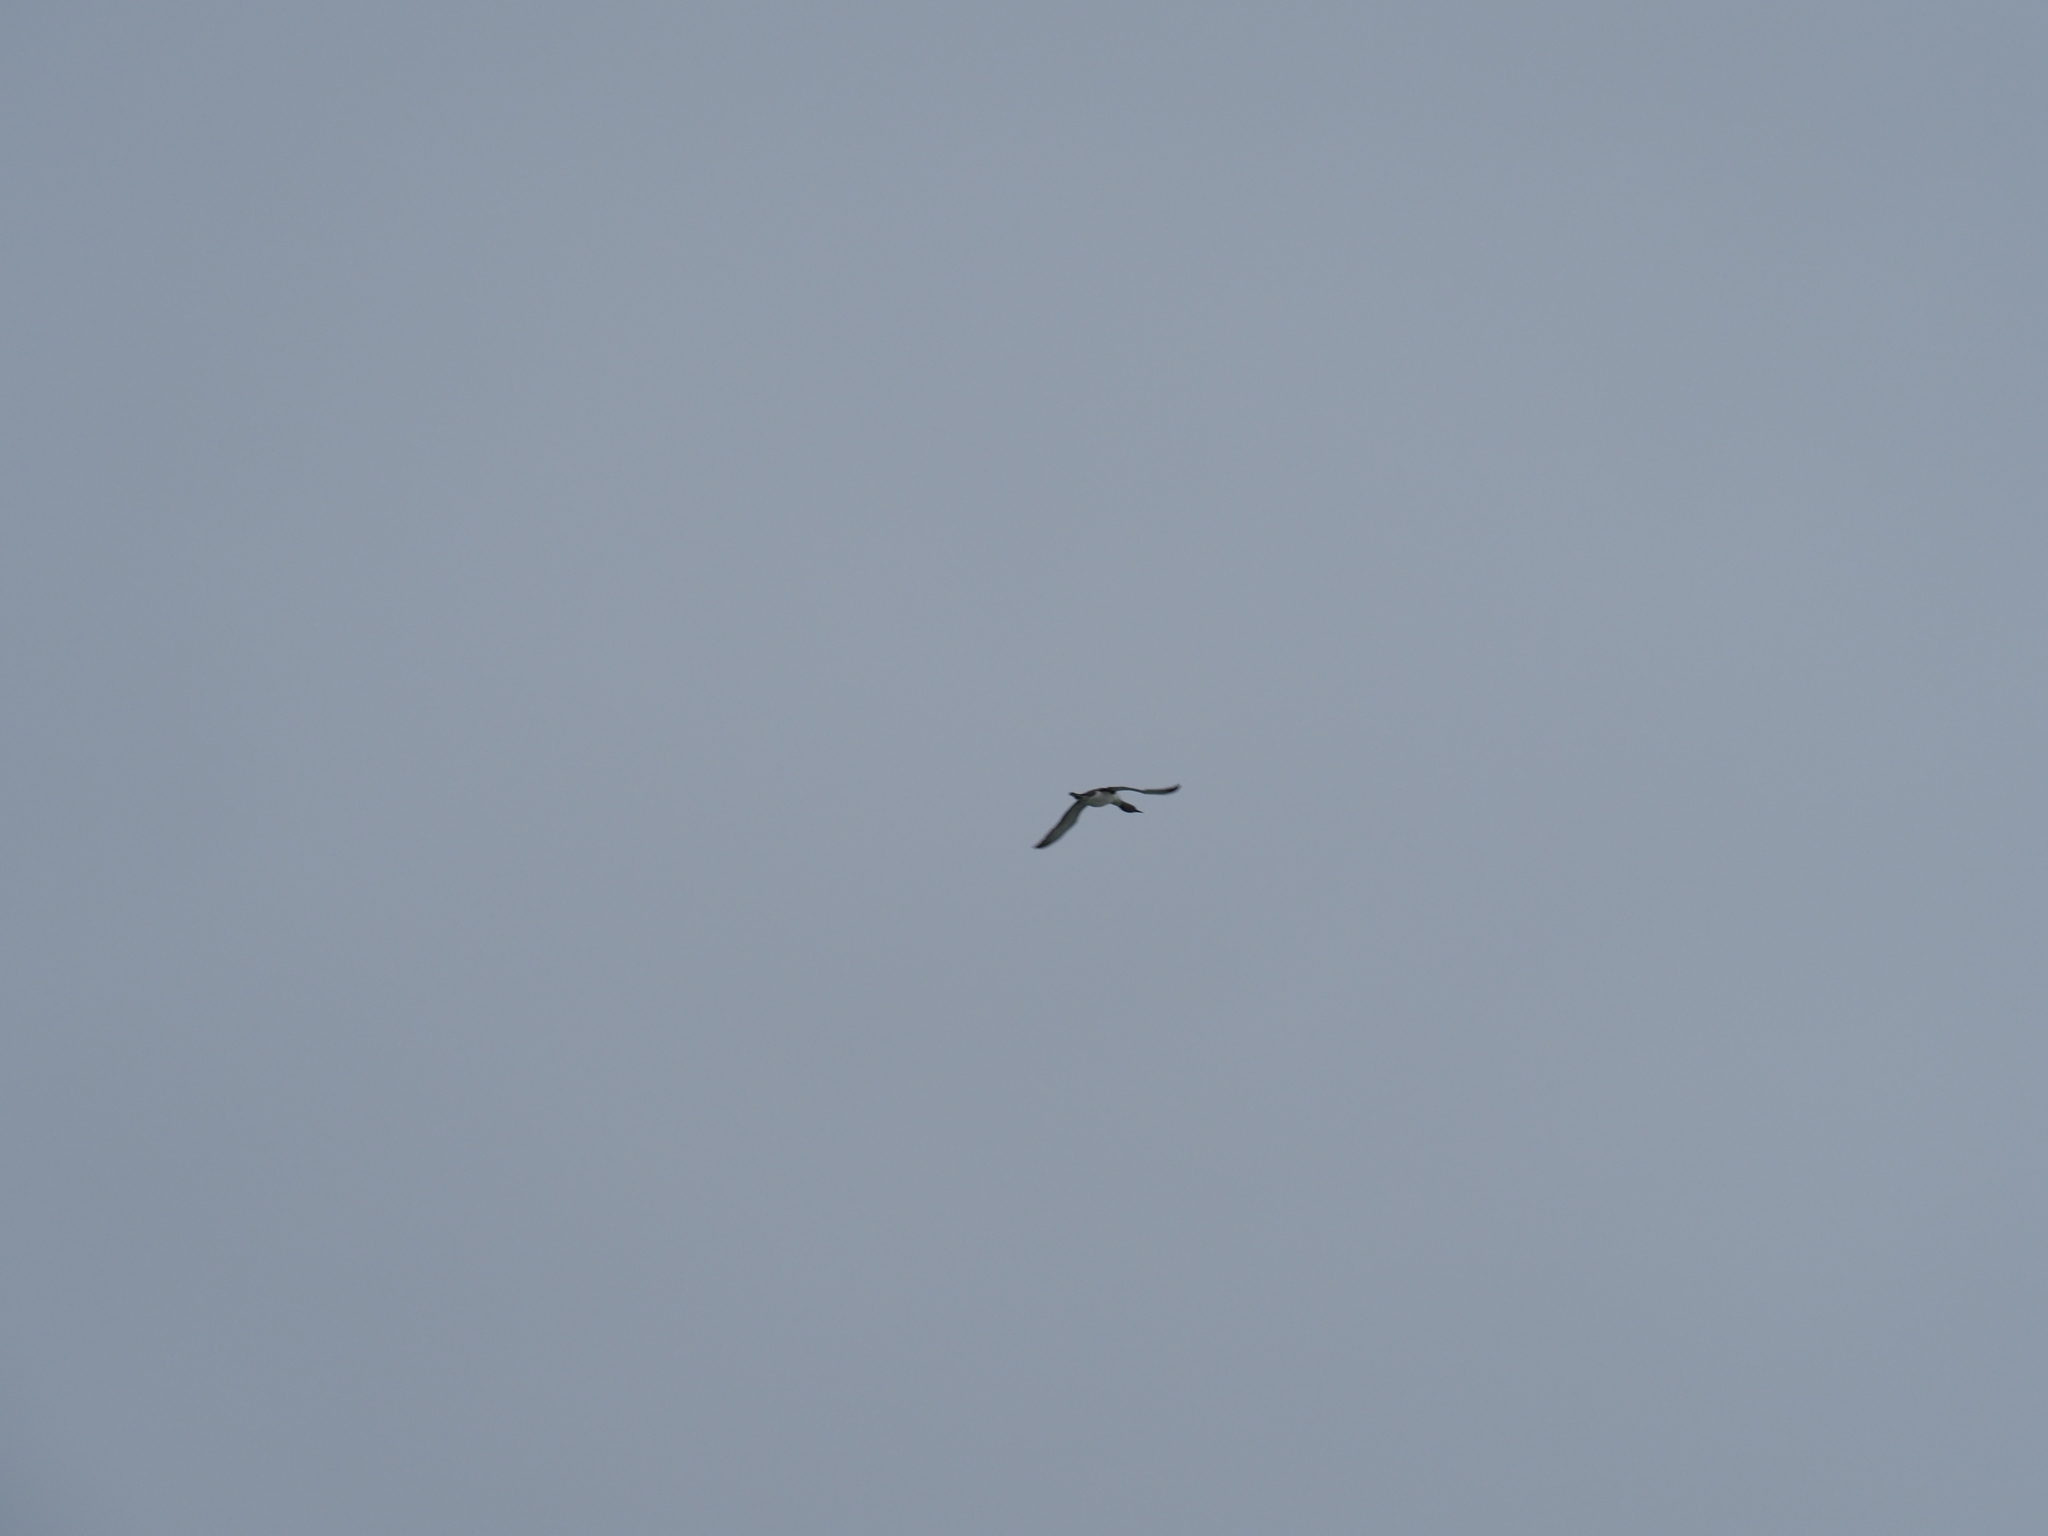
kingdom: Animalia
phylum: Chordata
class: Aves
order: Gaviiformes
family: Gaviidae
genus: Gavia
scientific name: Gavia stellata
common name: Red-throated loon
